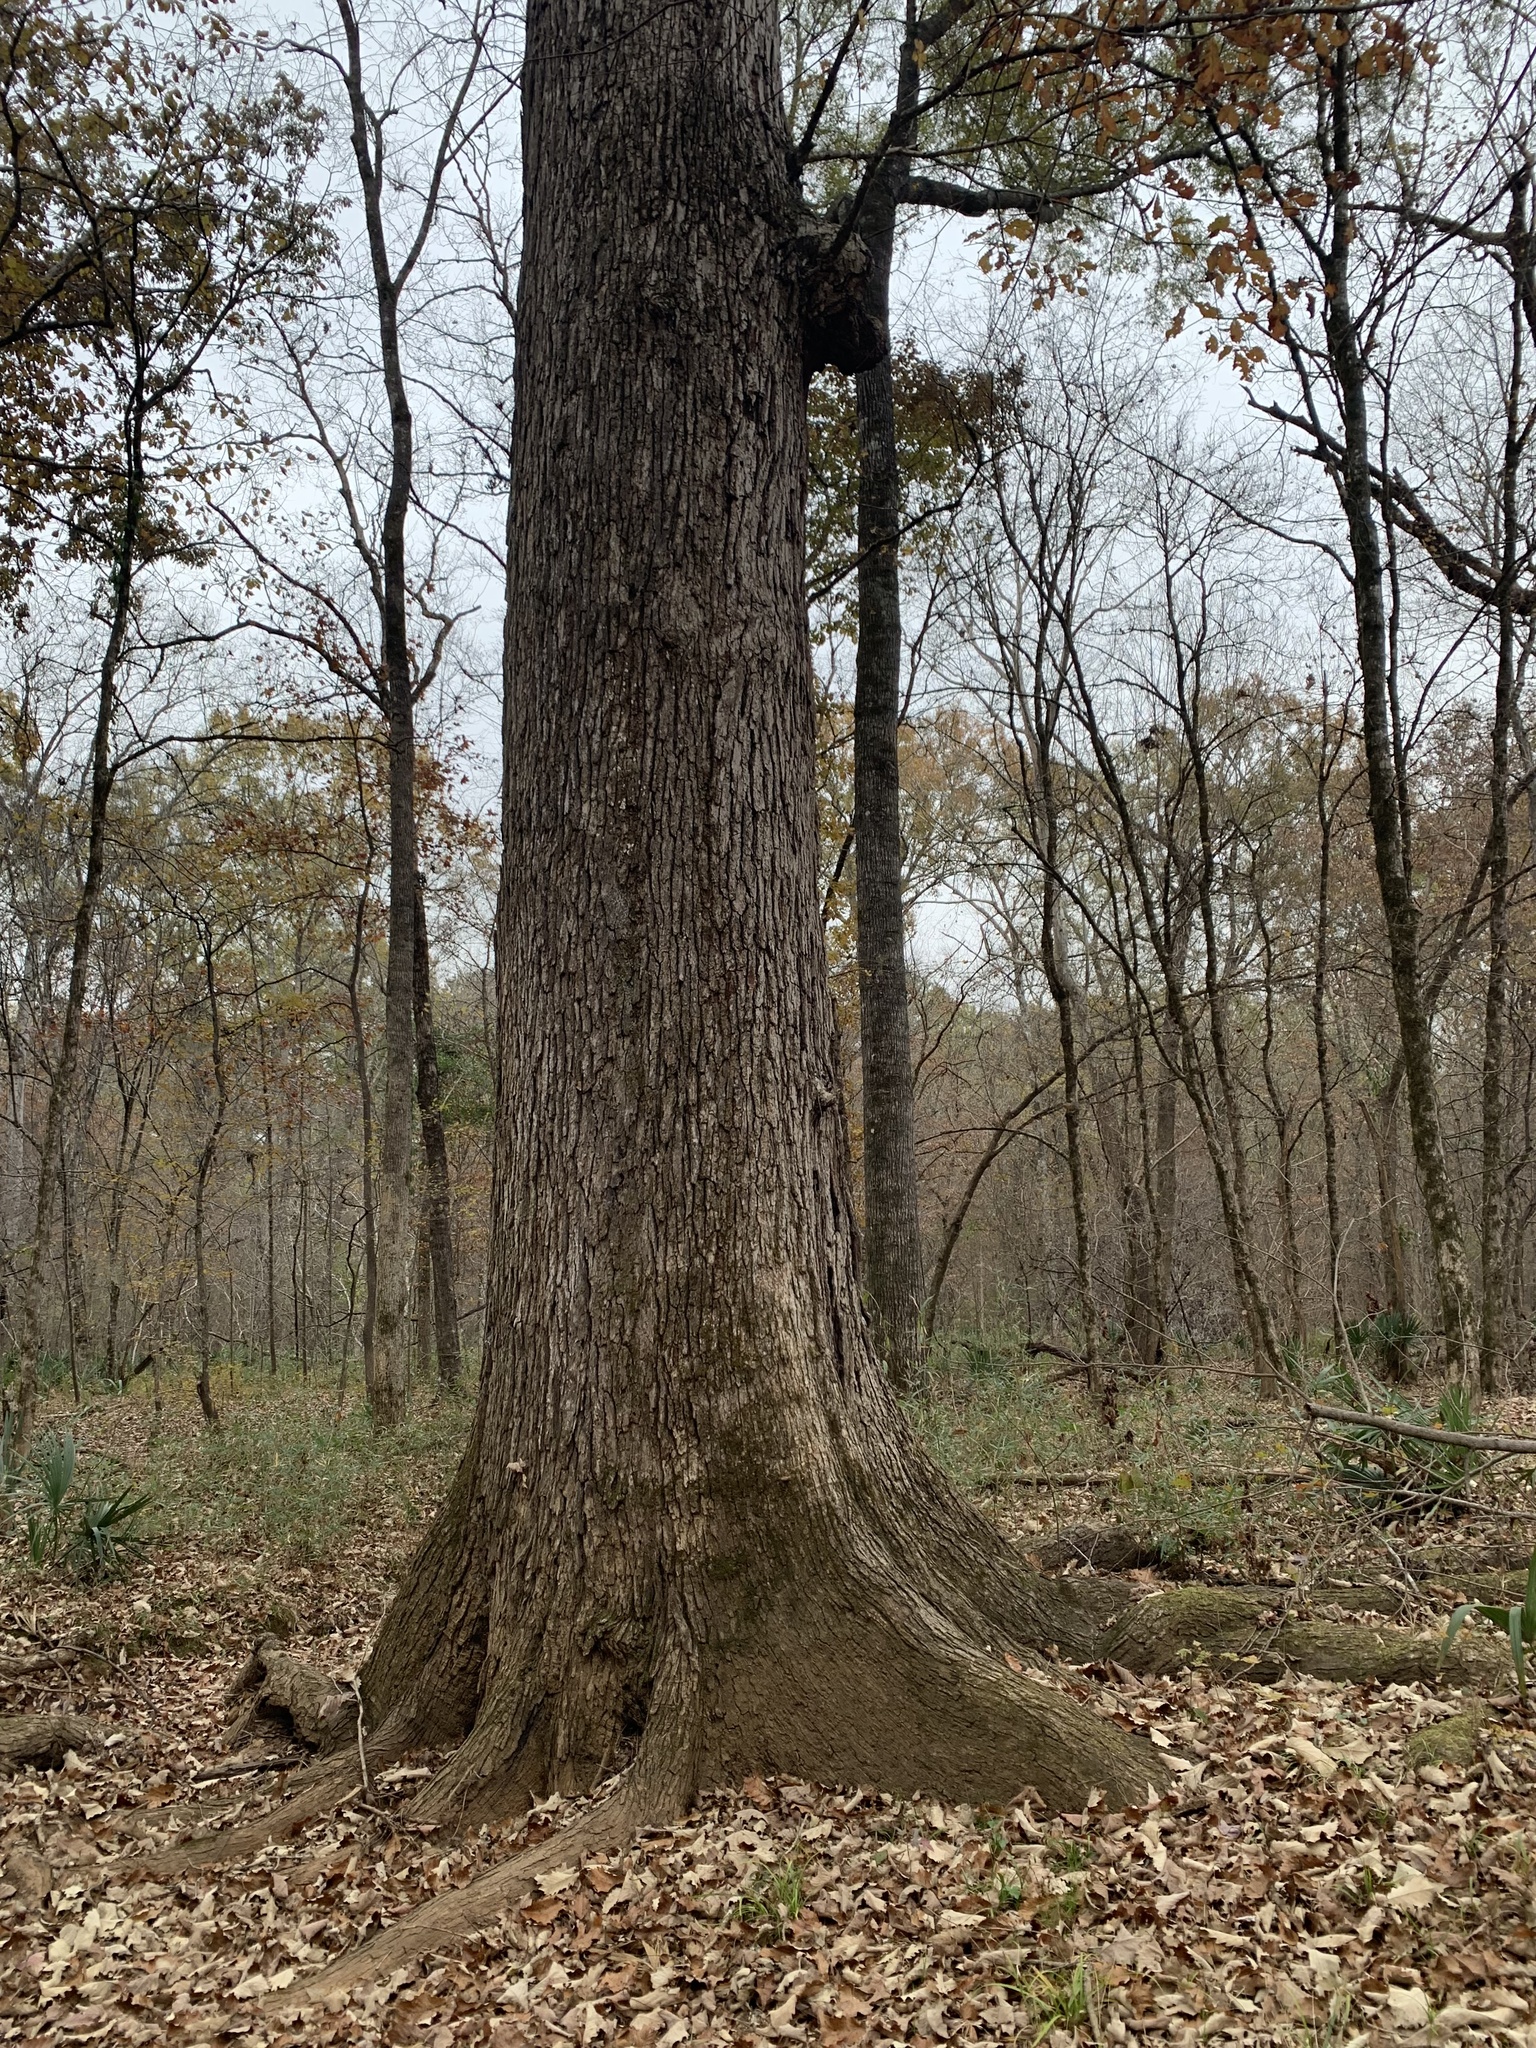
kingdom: Plantae
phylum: Tracheophyta
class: Magnoliopsida
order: Fagales
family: Fagaceae
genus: Quercus
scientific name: Quercus michauxii
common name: Swamp chestnut oak
